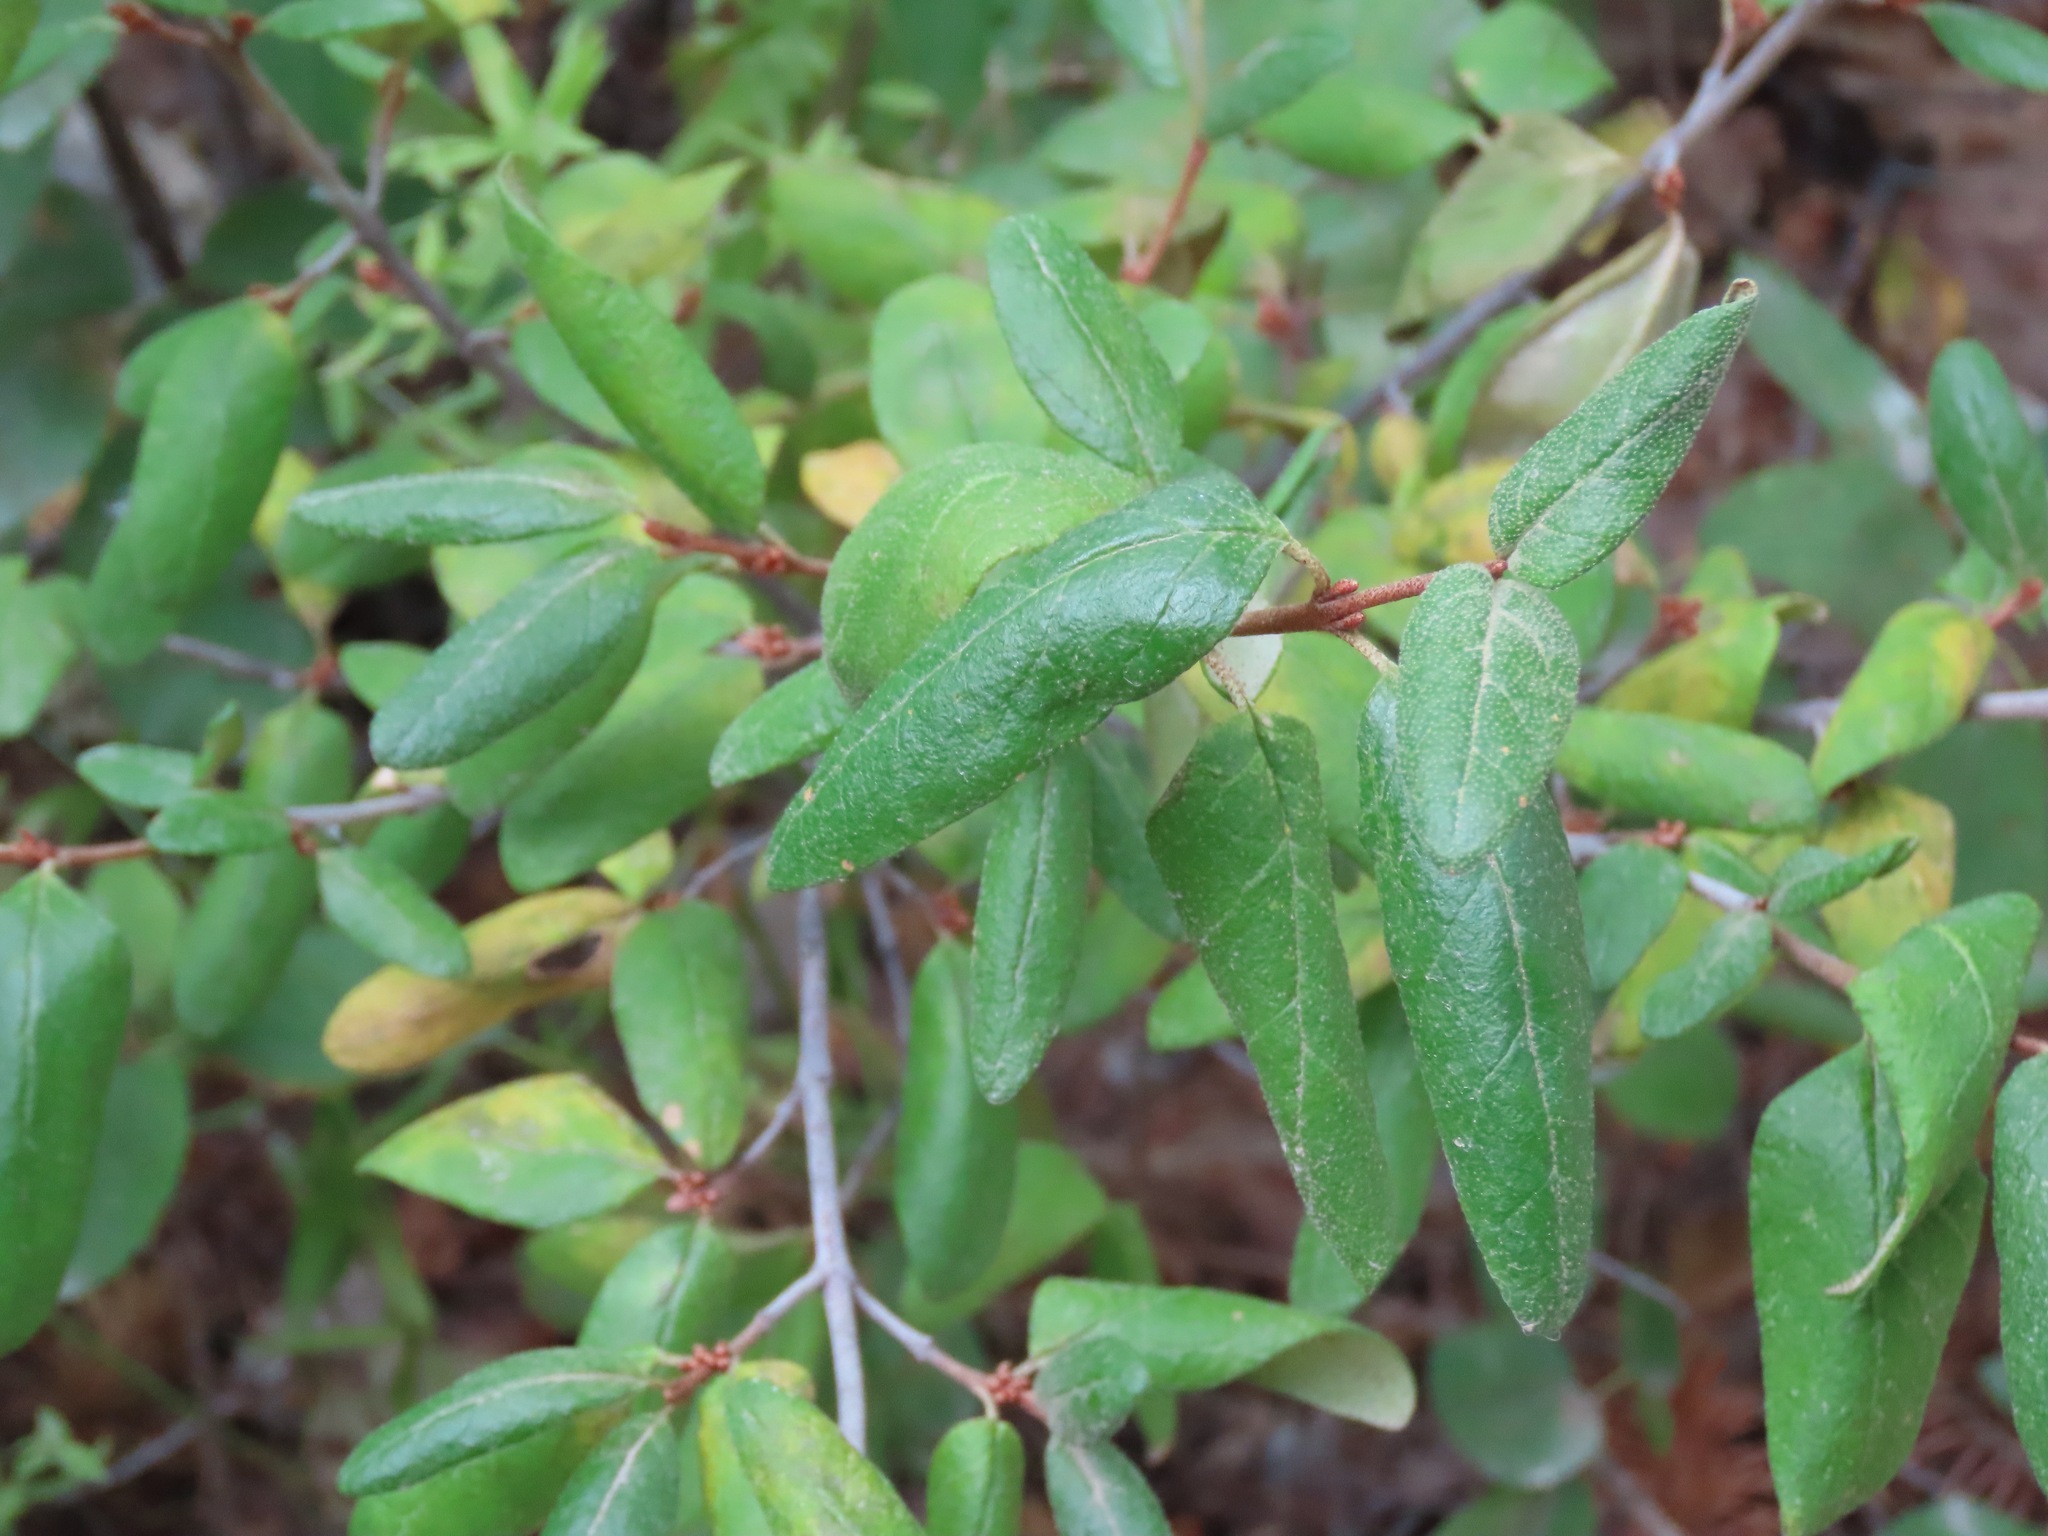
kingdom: Plantae
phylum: Tracheophyta
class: Magnoliopsida
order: Rosales
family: Elaeagnaceae
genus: Shepherdia
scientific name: Shepherdia canadensis
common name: Soapberry
